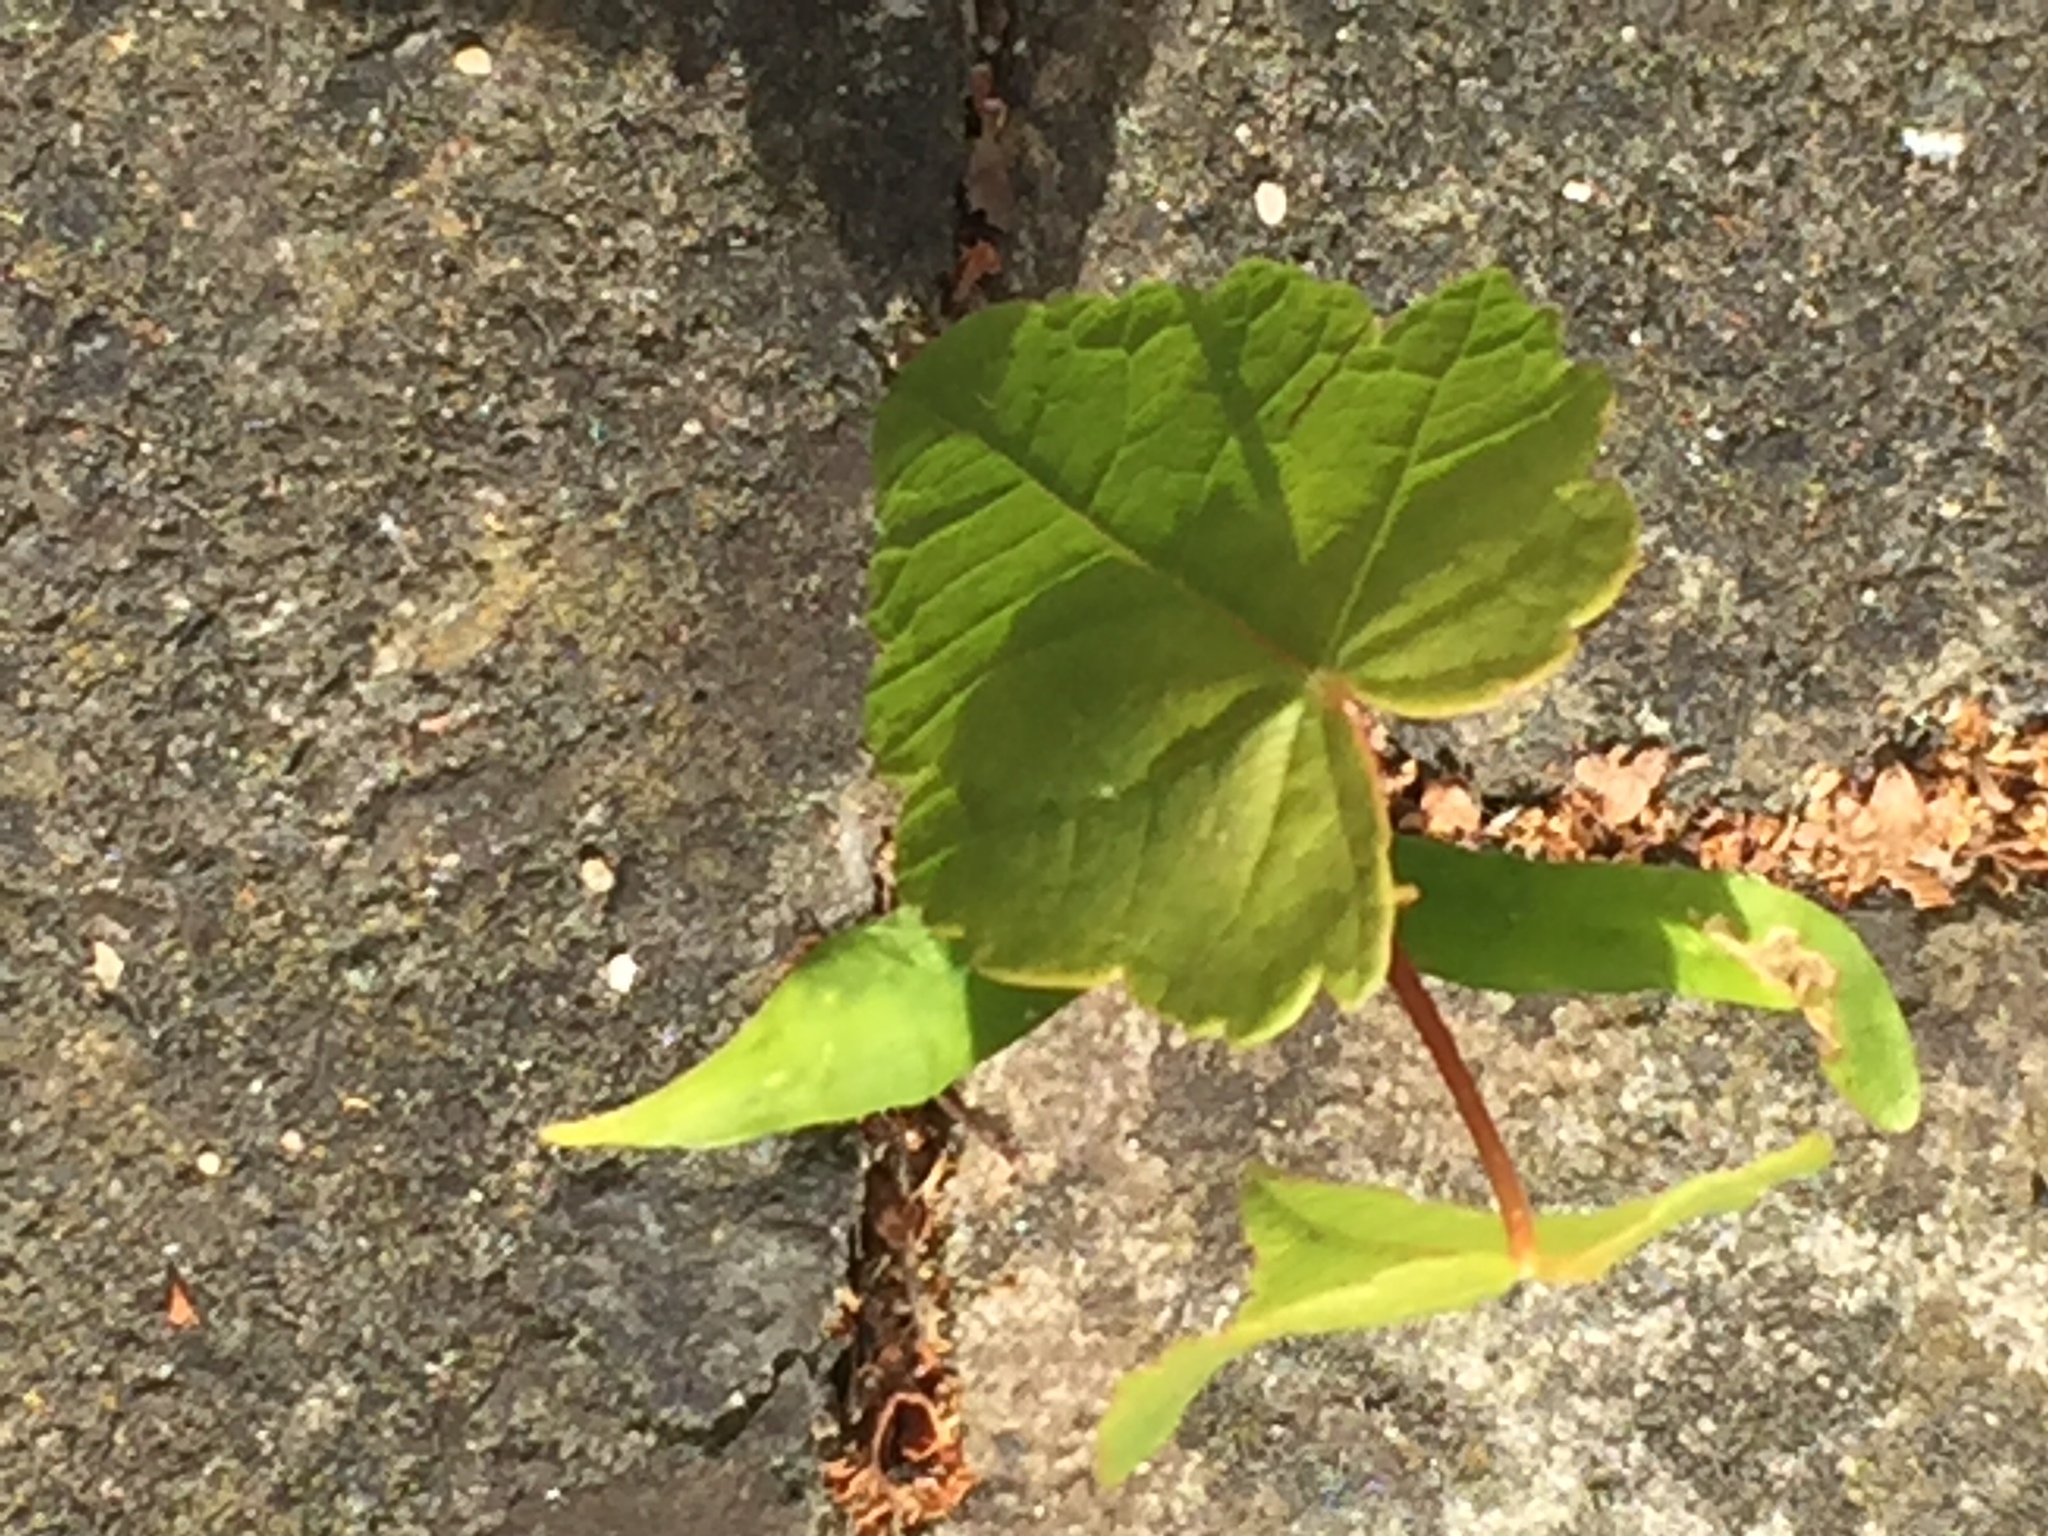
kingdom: Plantae
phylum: Tracheophyta
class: Magnoliopsida
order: Sapindales
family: Sapindaceae
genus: Acer
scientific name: Acer pseudoplatanus
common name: Sycamore
